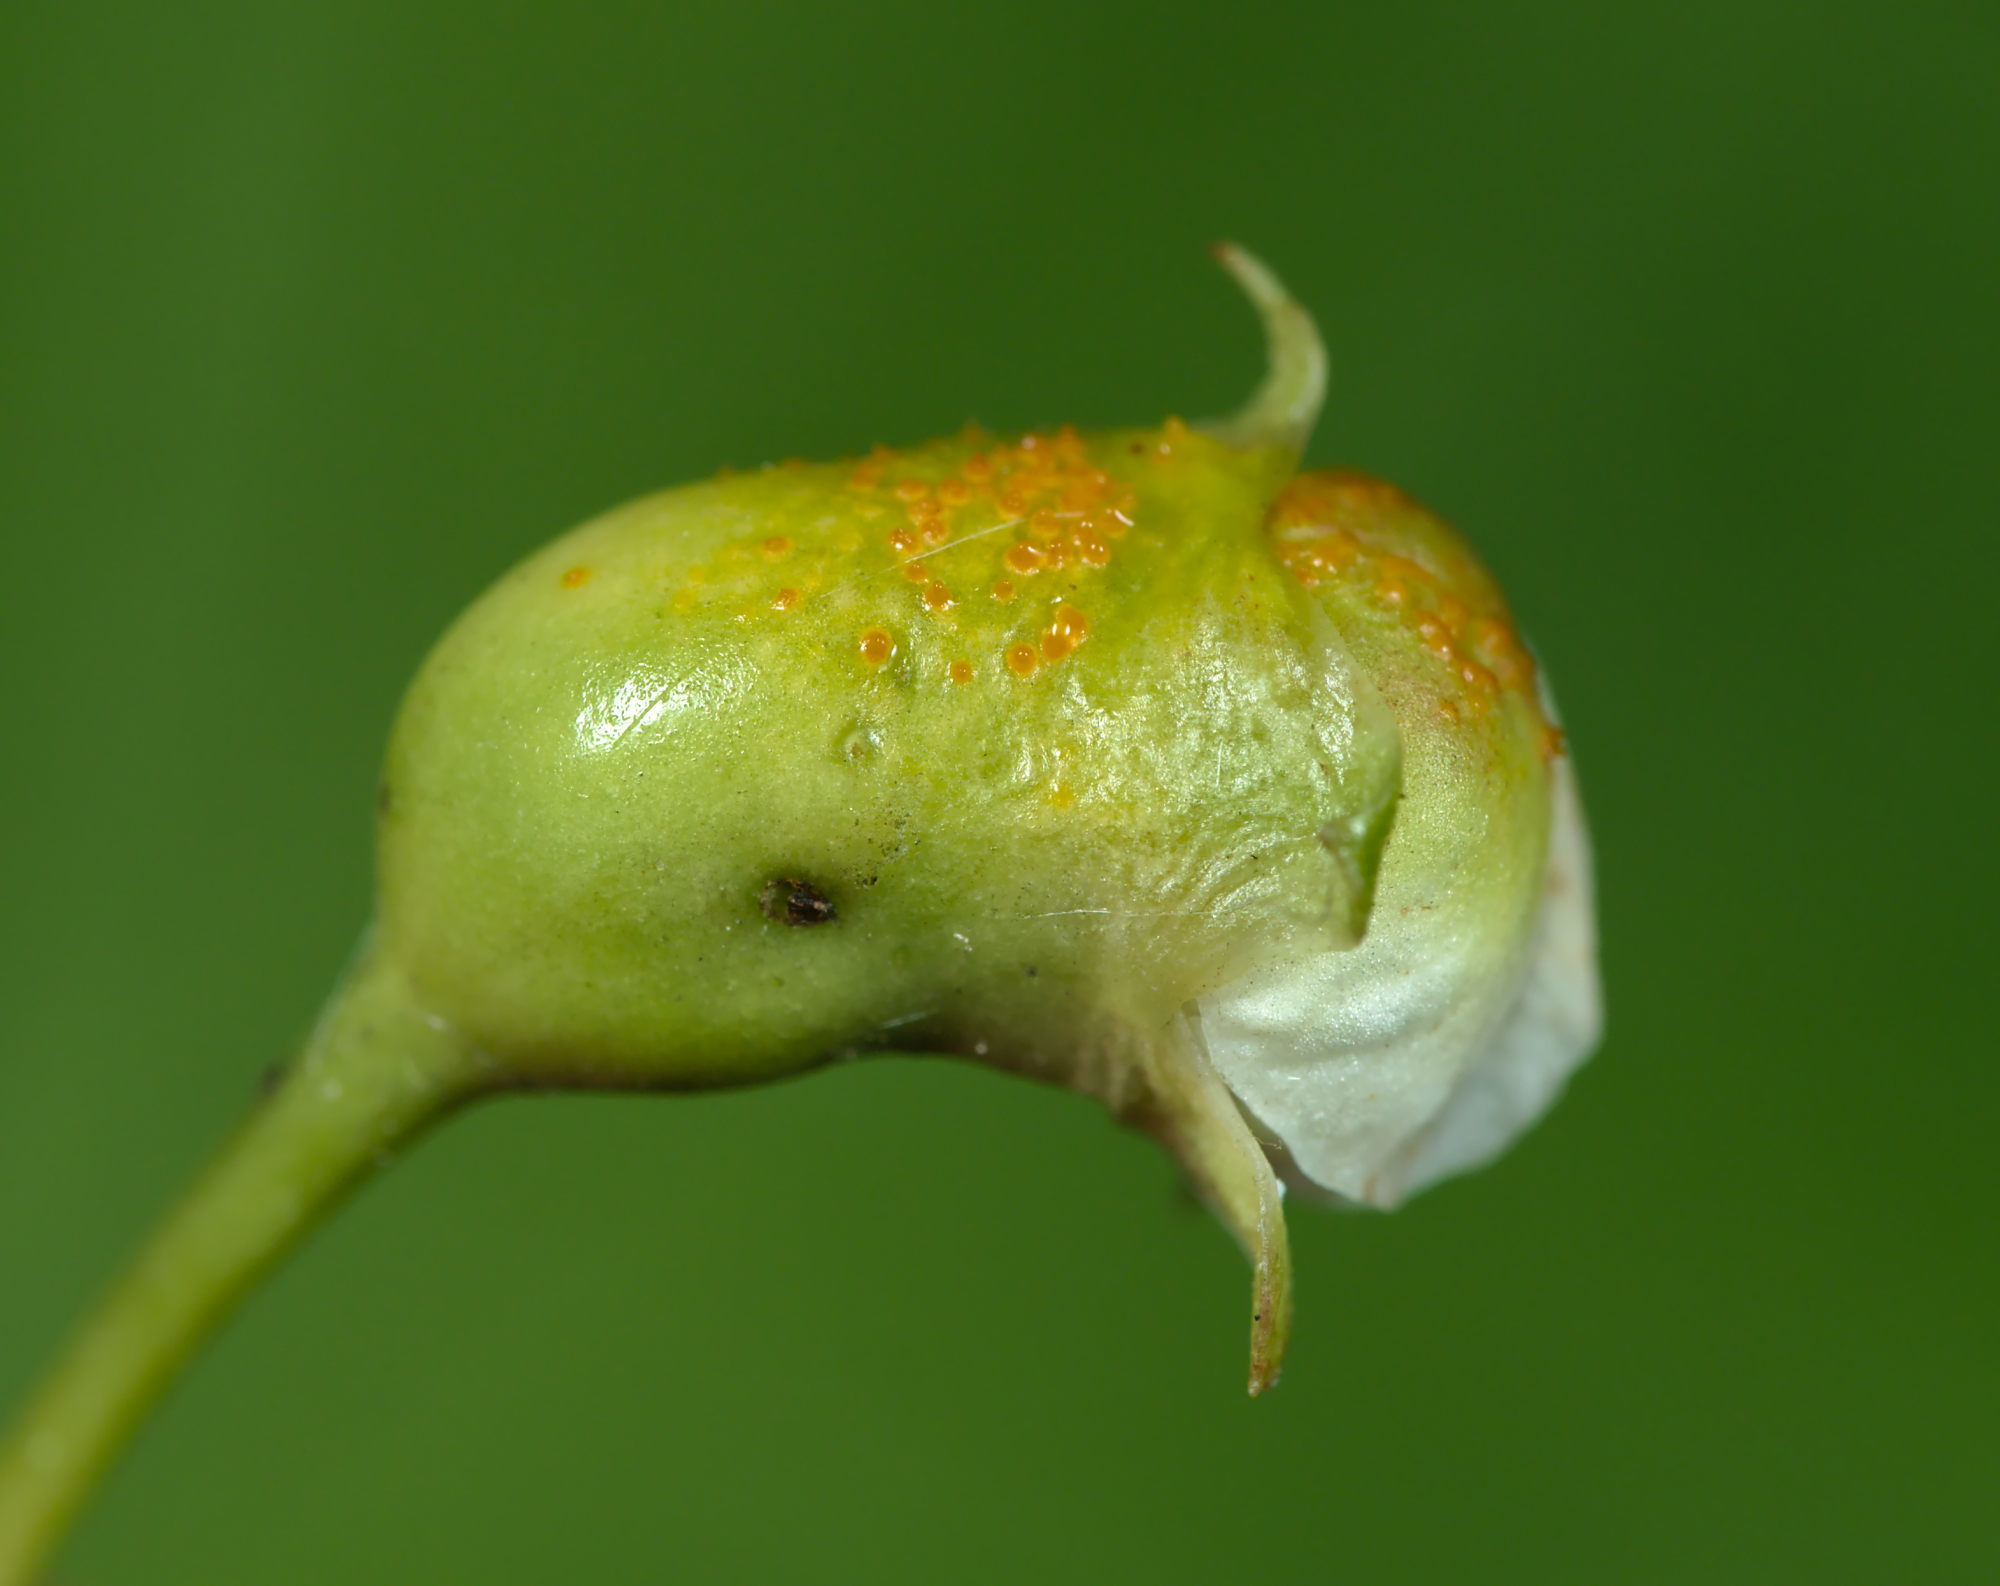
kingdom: Animalia
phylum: Arthropoda
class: Insecta
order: Coleoptera
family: Curculionidae
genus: Anthonomus
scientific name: Anthonomus
